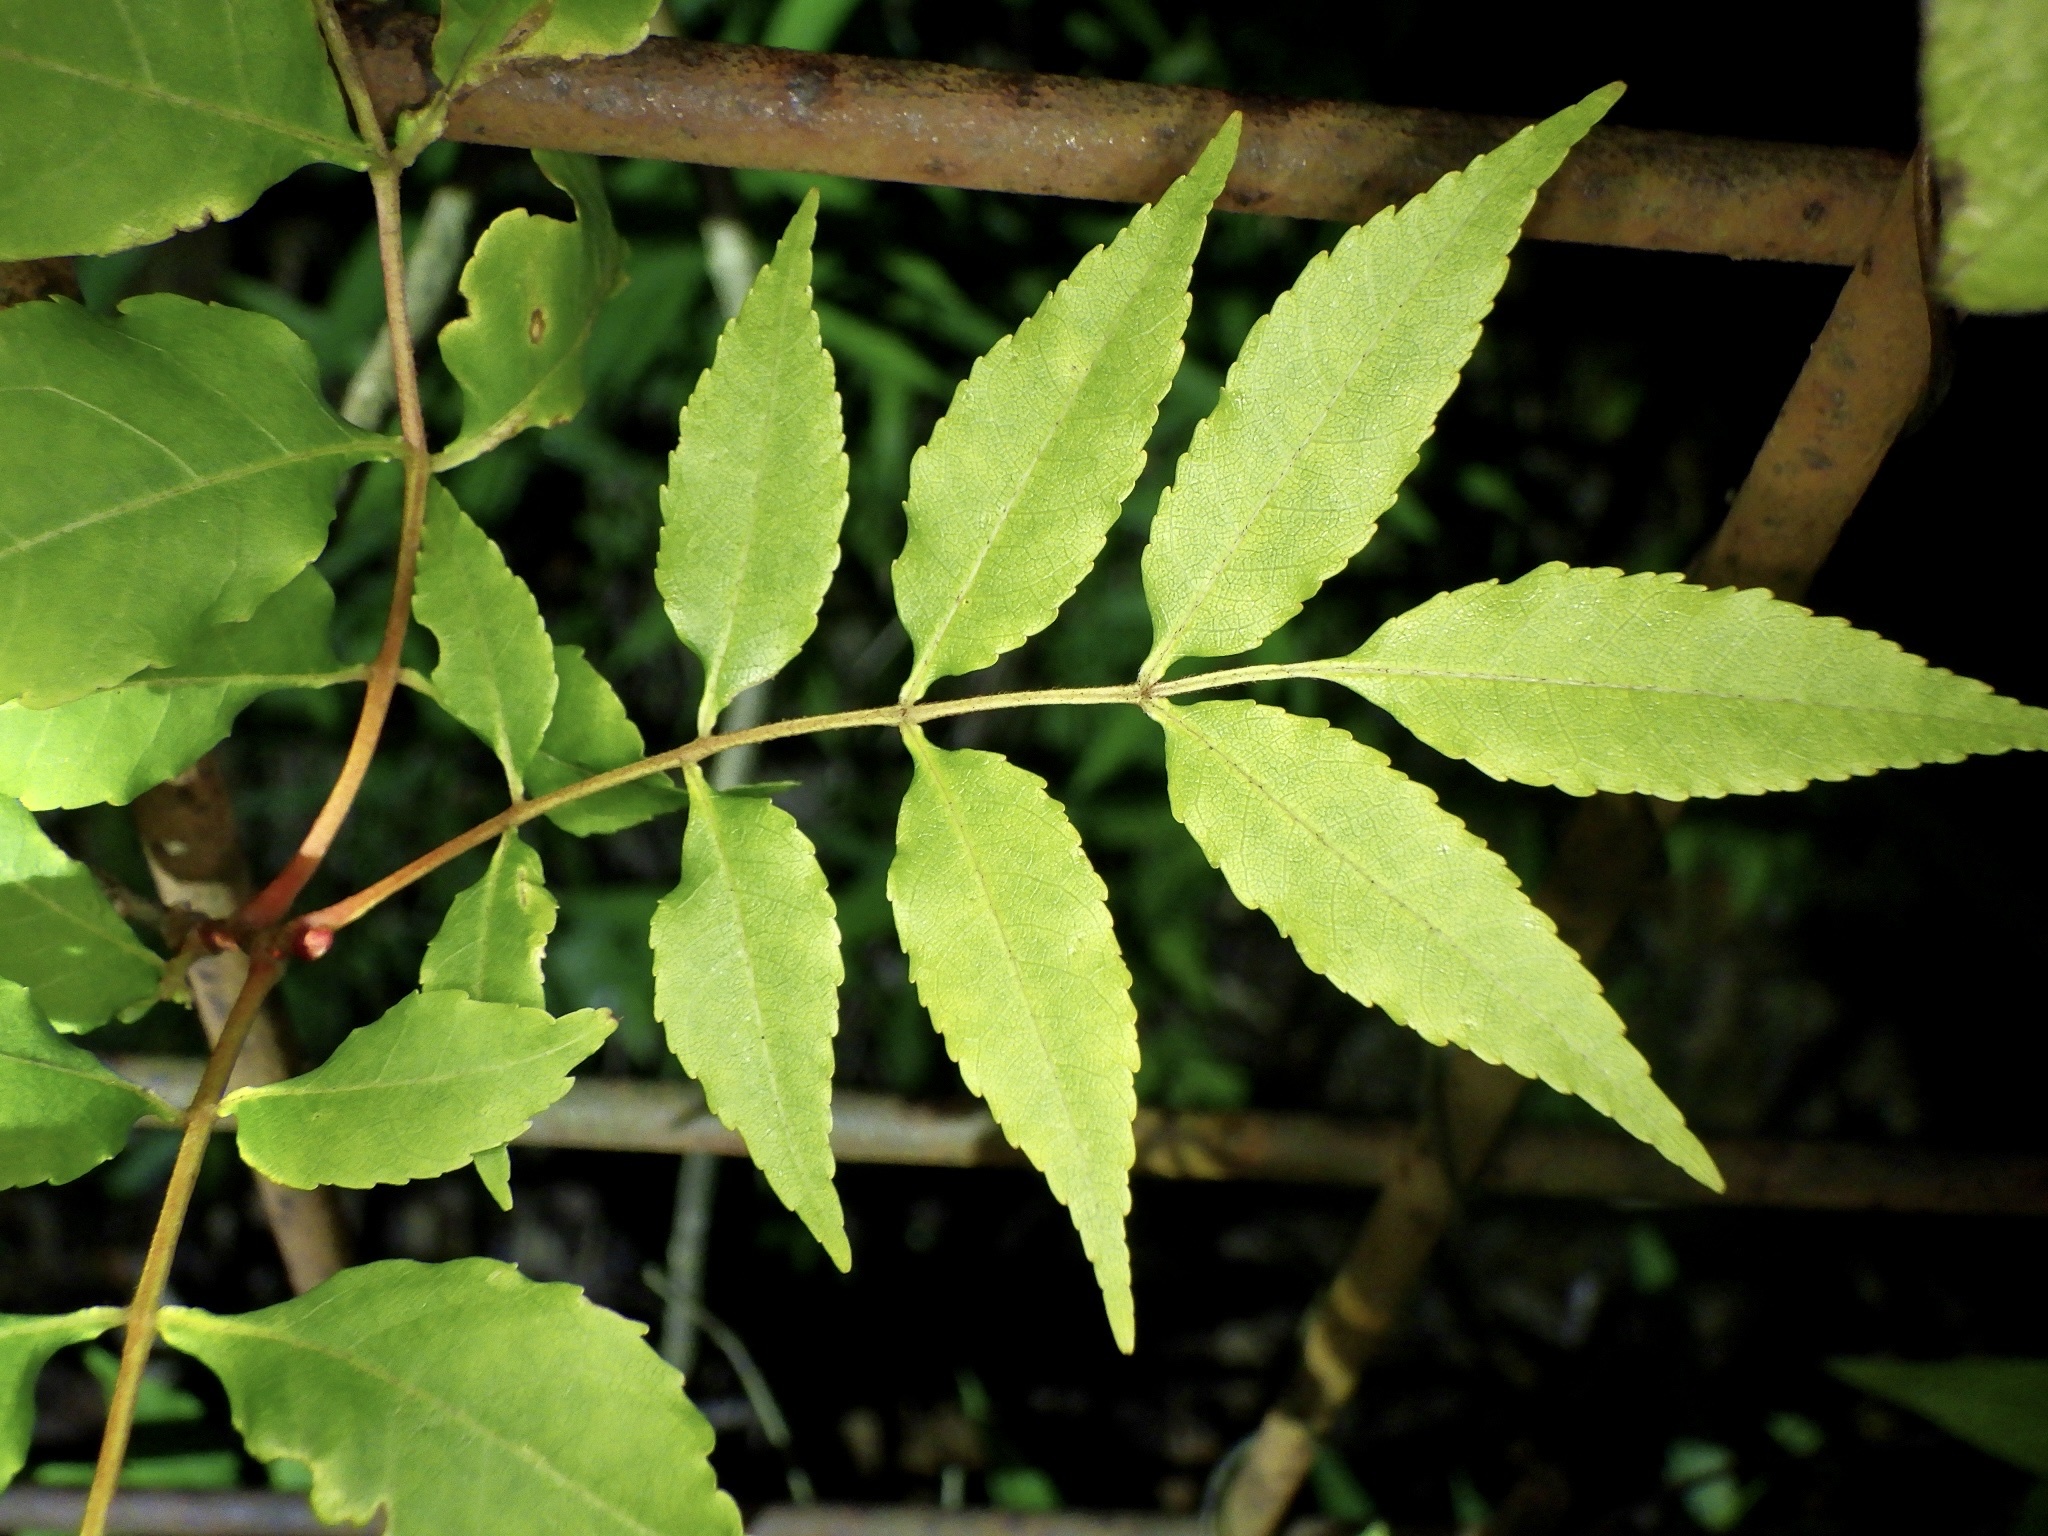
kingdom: Plantae
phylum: Tracheophyta
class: Magnoliopsida
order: Lamiales
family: Oleaceae
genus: Fraxinus
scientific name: Fraxinus lanuginosa
